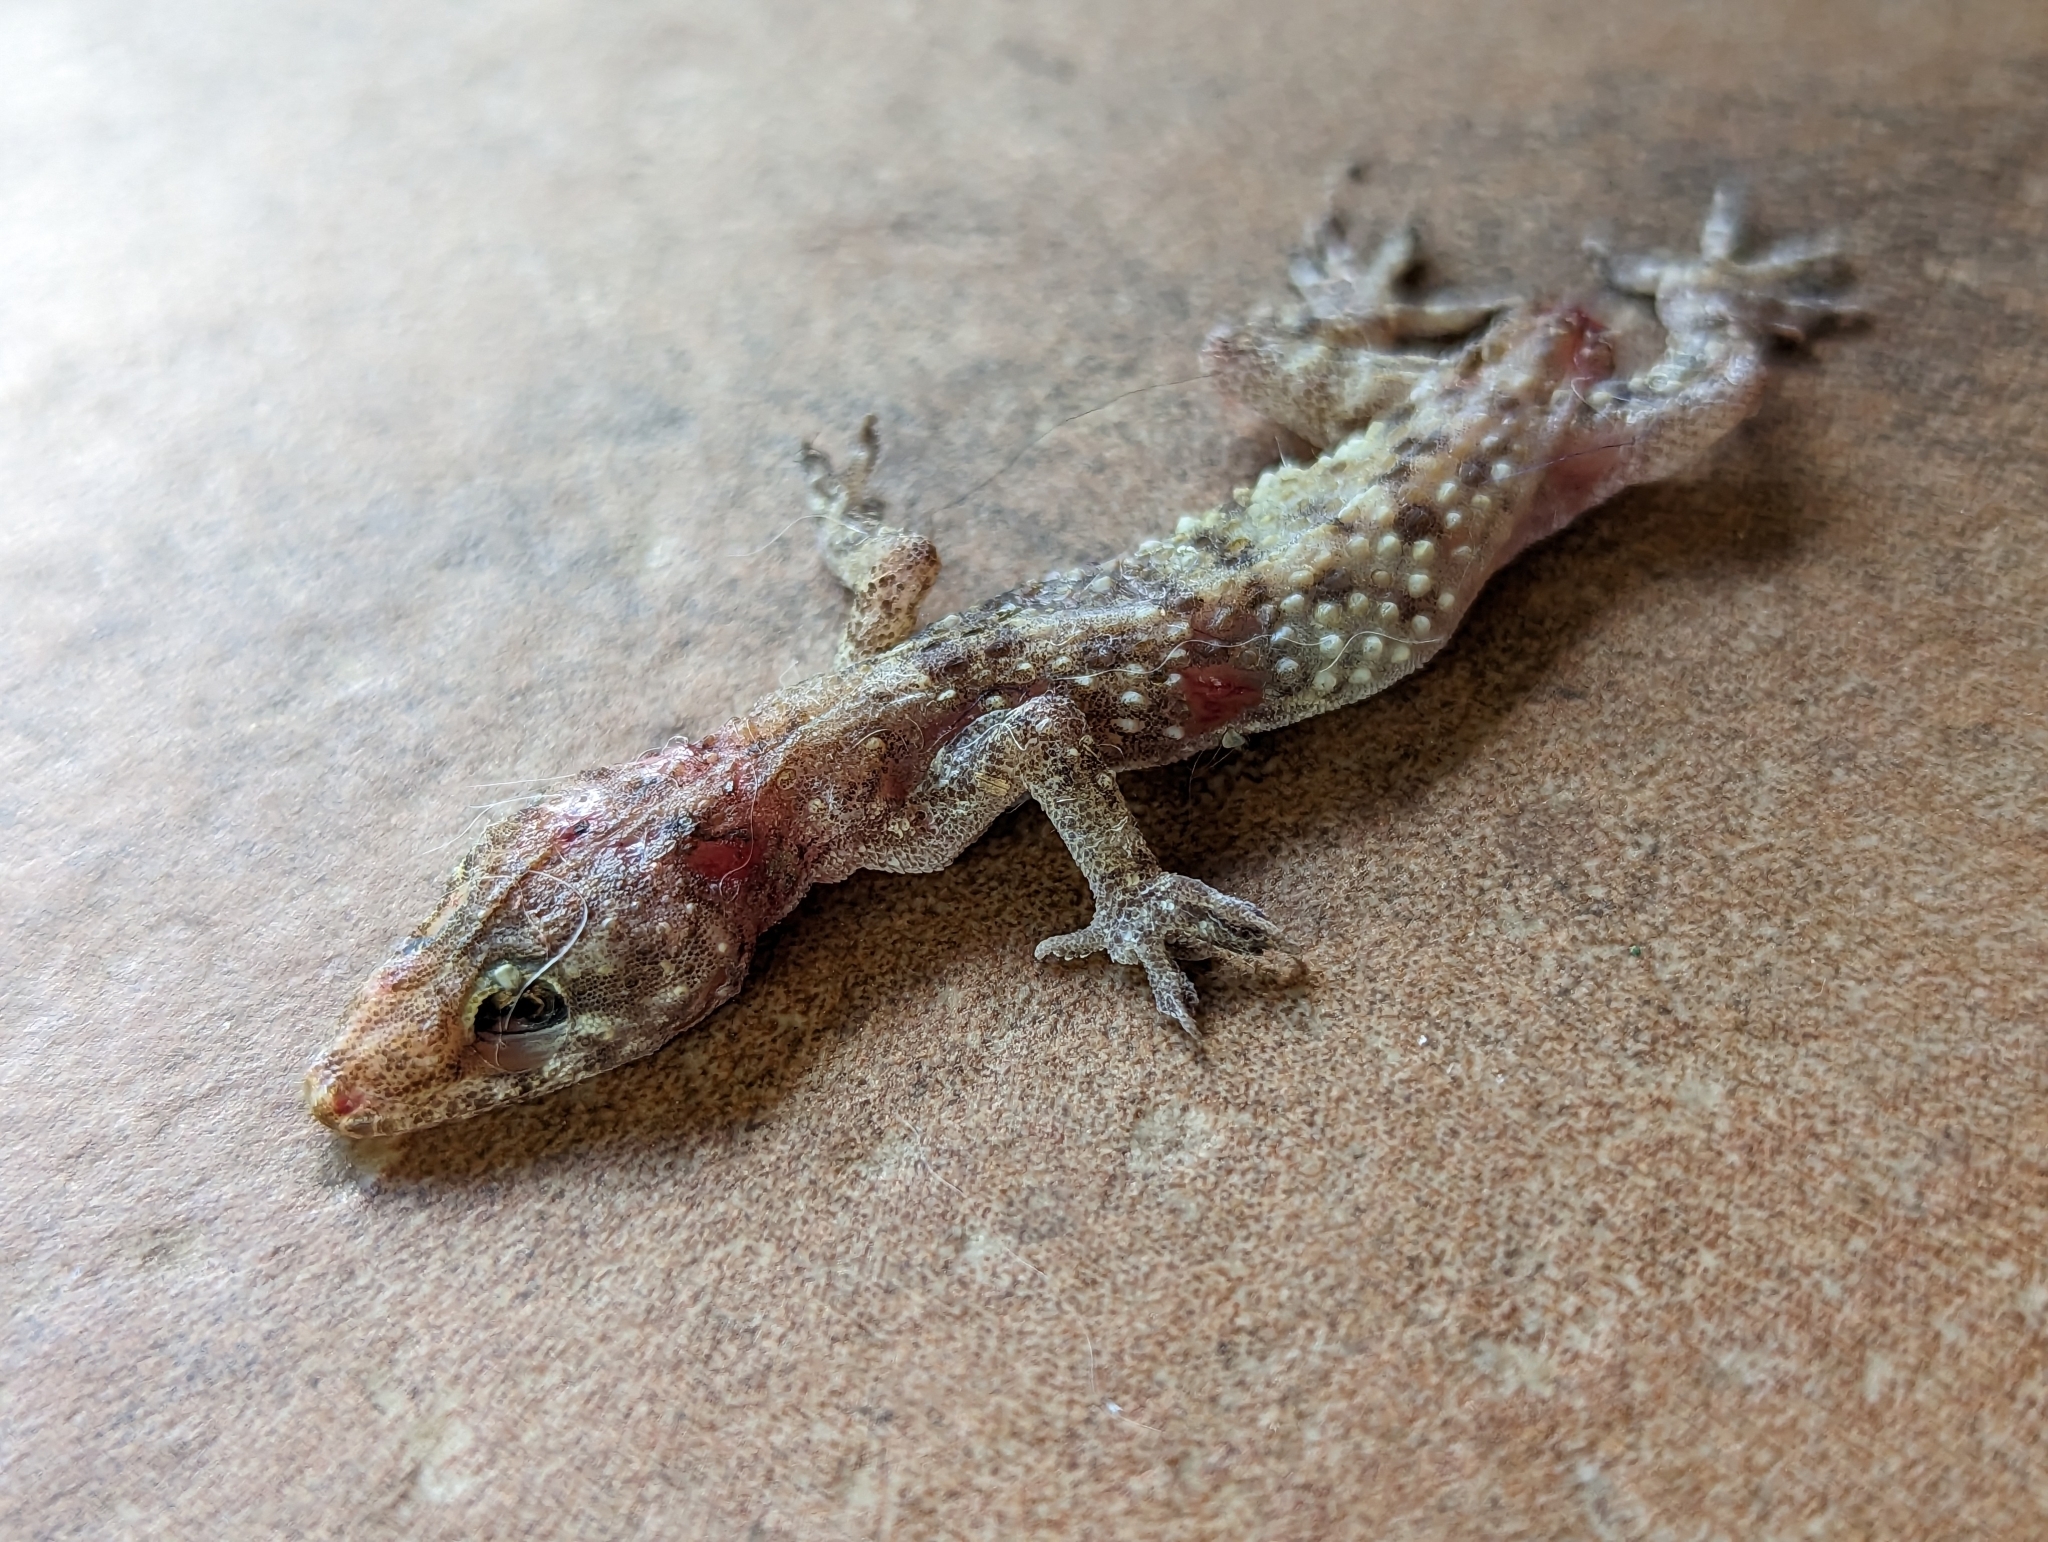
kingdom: Animalia
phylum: Chordata
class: Squamata
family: Gekkonidae
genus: Hemidactylus
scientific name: Hemidactylus turcicus
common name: Turkish gecko
